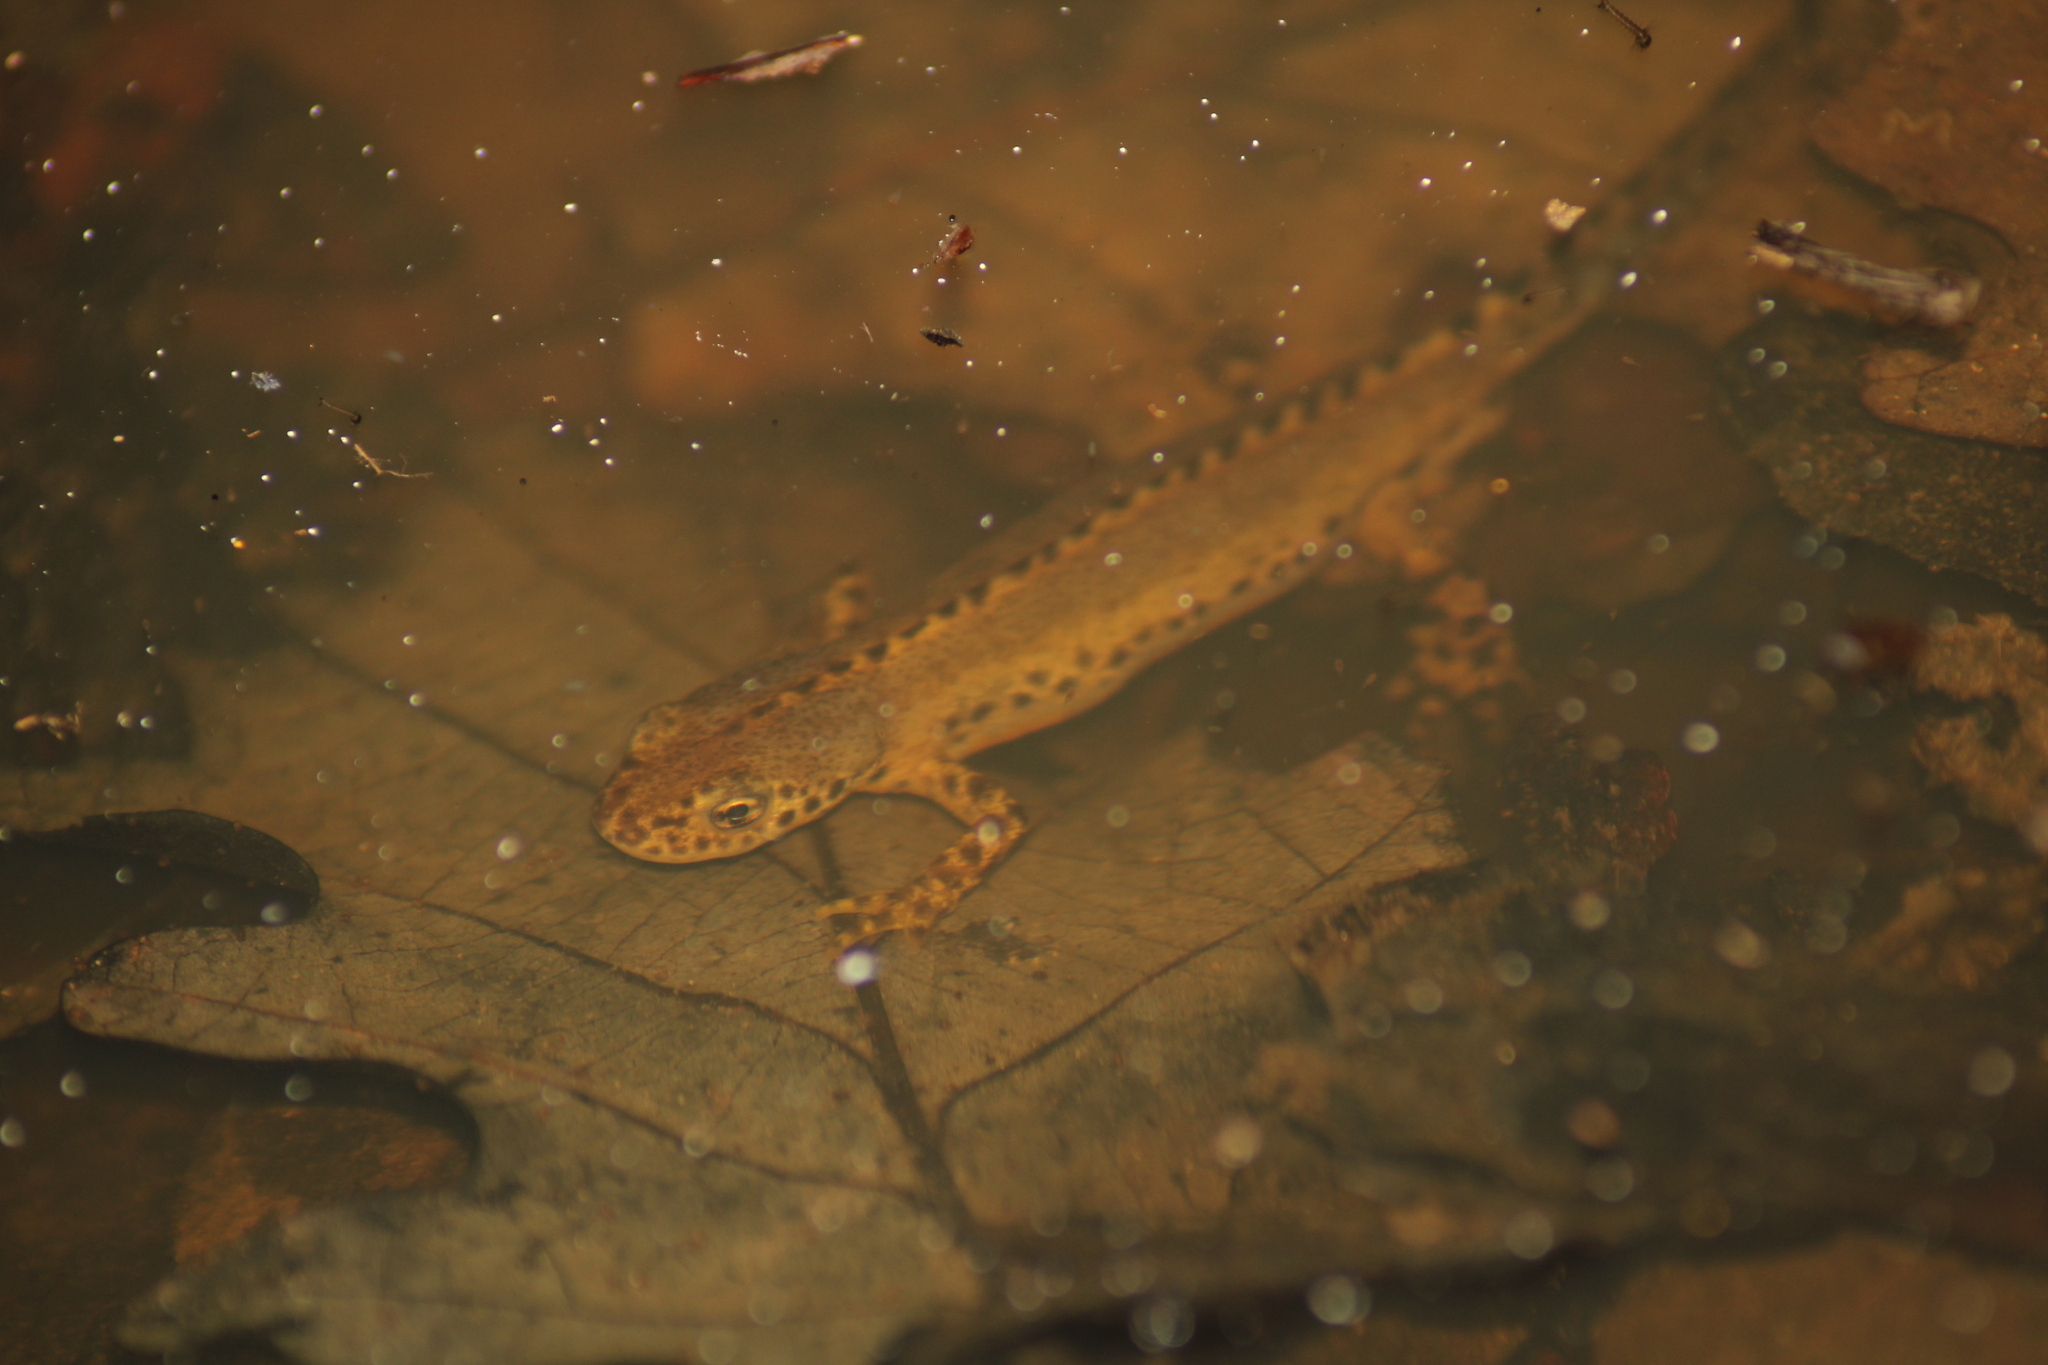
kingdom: Animalia
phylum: Chordata
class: Amphibia
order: Caudata
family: Salamandridae
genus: Ichthyosaura
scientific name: Ichthyosaura alpestris
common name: Alpine newt
